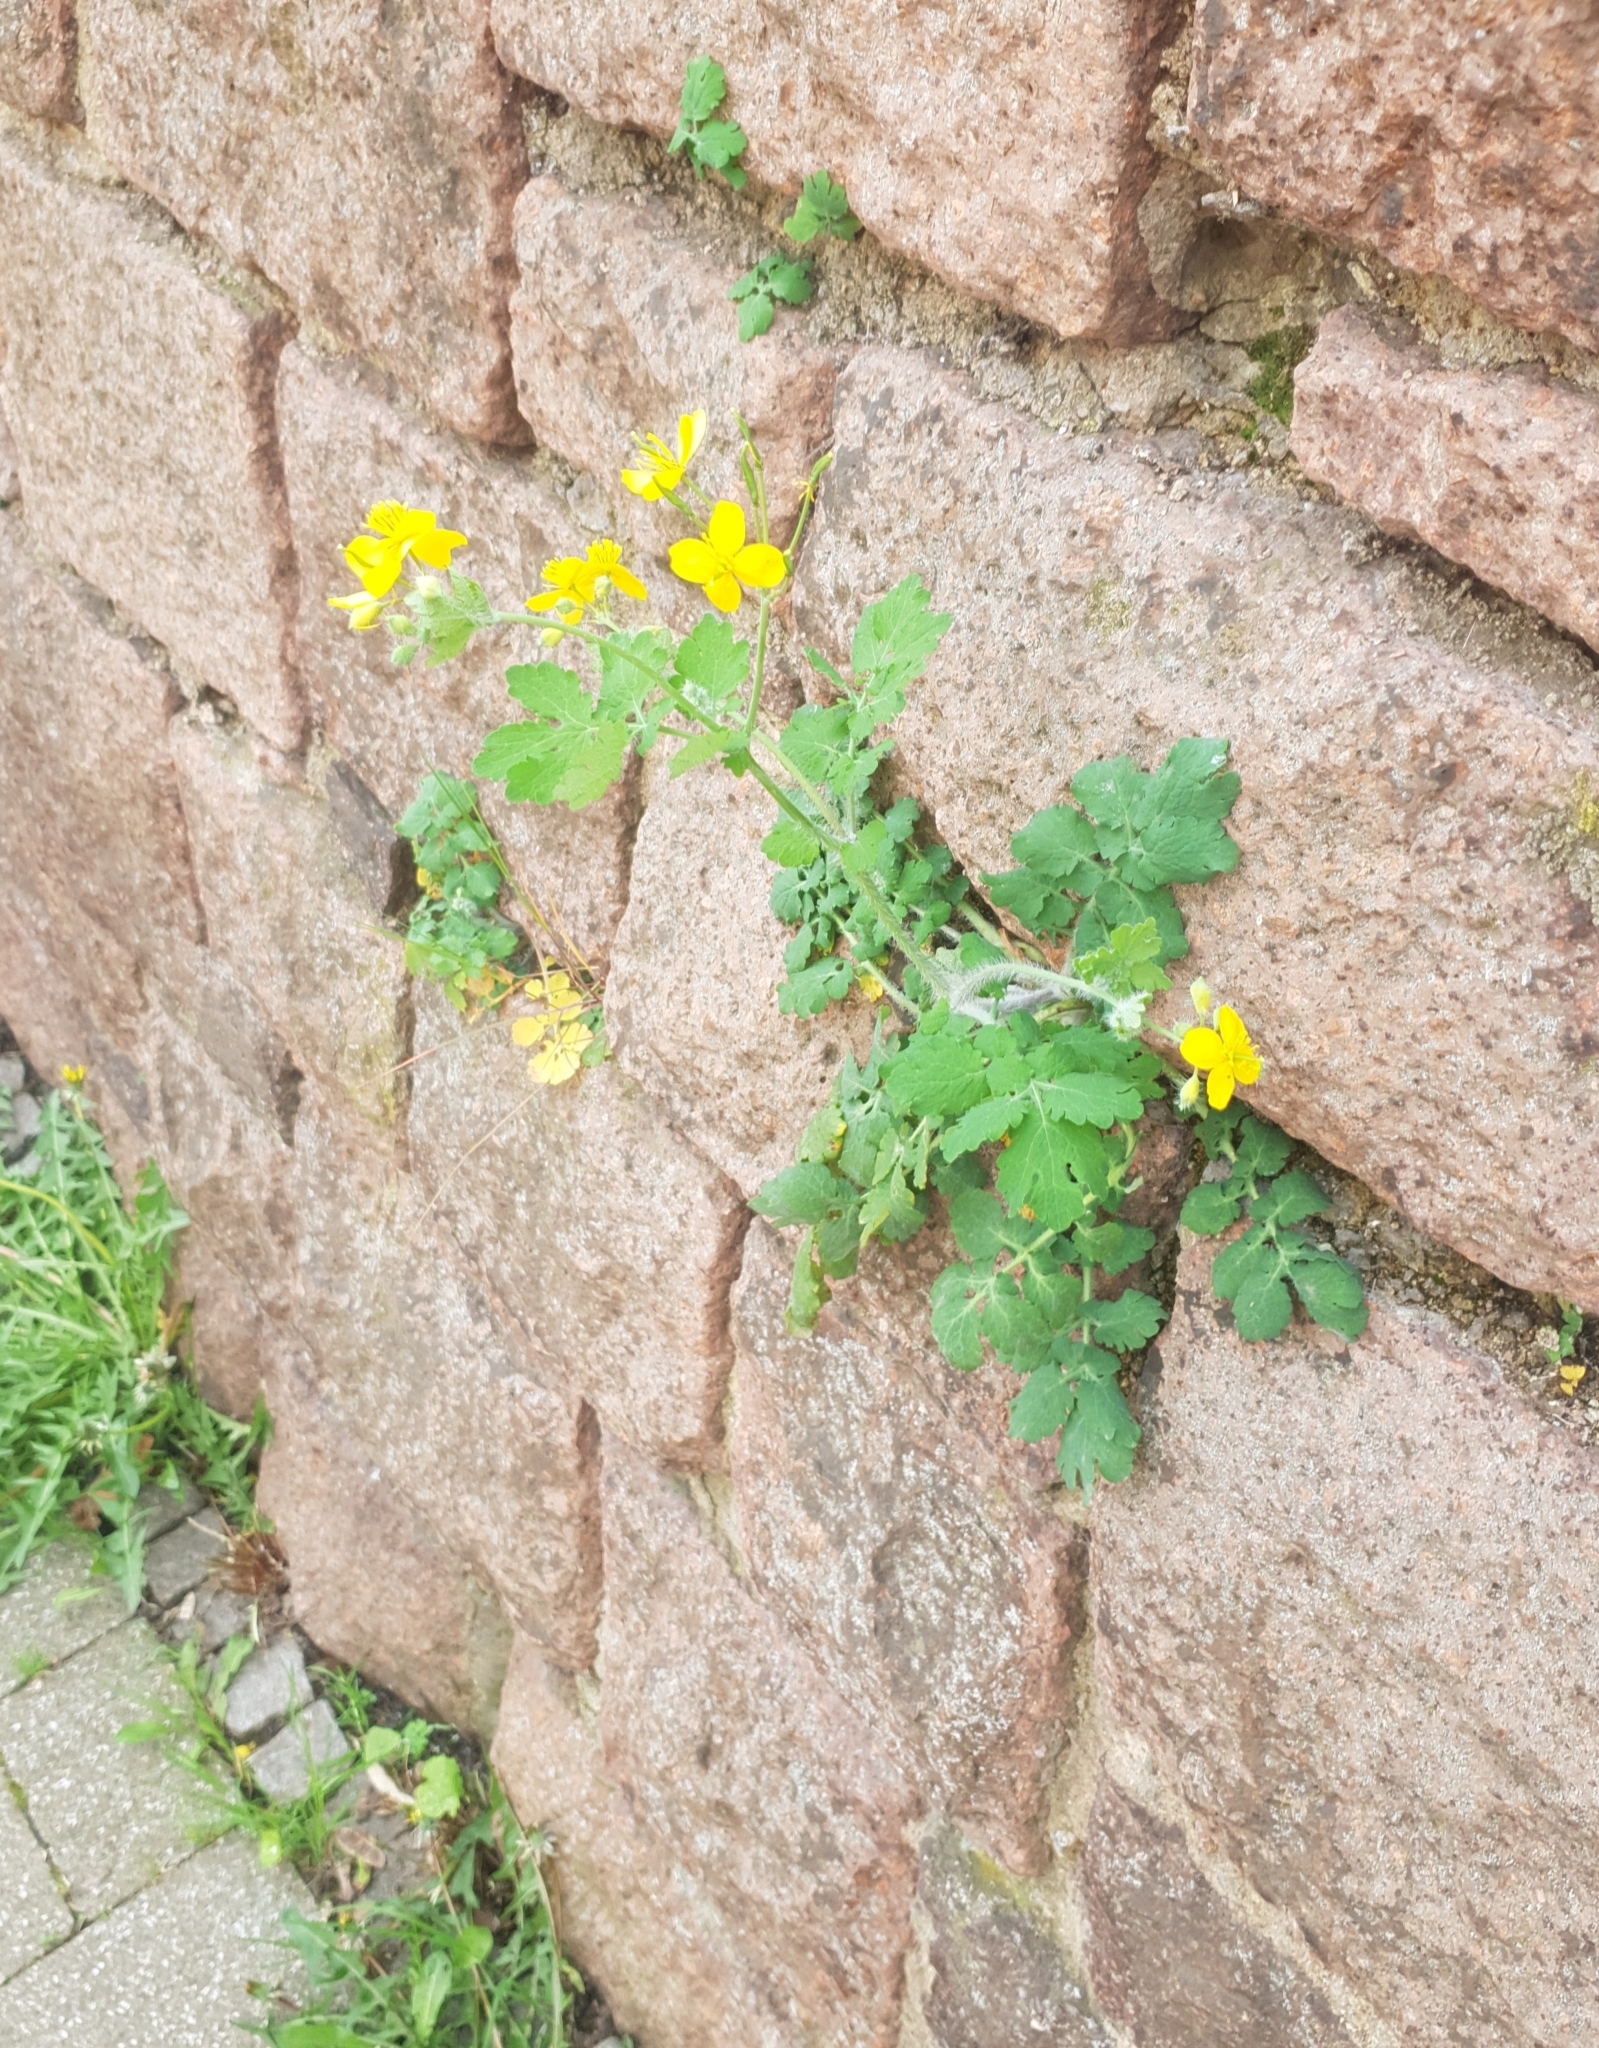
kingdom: Plantae
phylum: Tracheophyta
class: Magnoliopsida
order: Ranunculales
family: Papaveraceae
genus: Chelidonium
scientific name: Chelidonium majus
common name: Greater celandine
